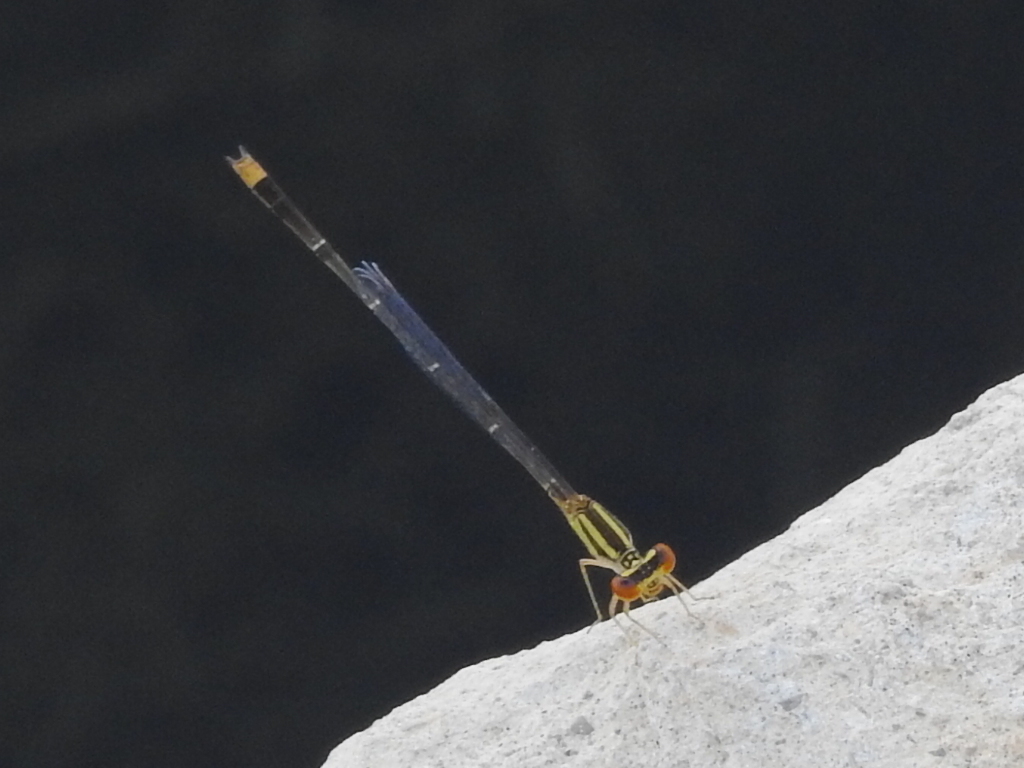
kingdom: Animalia
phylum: Arthropoda
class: Insecta
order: Odonata
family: Coenagrionidae
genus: Enallagma
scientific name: Enallagma signatum
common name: Orange bluet
